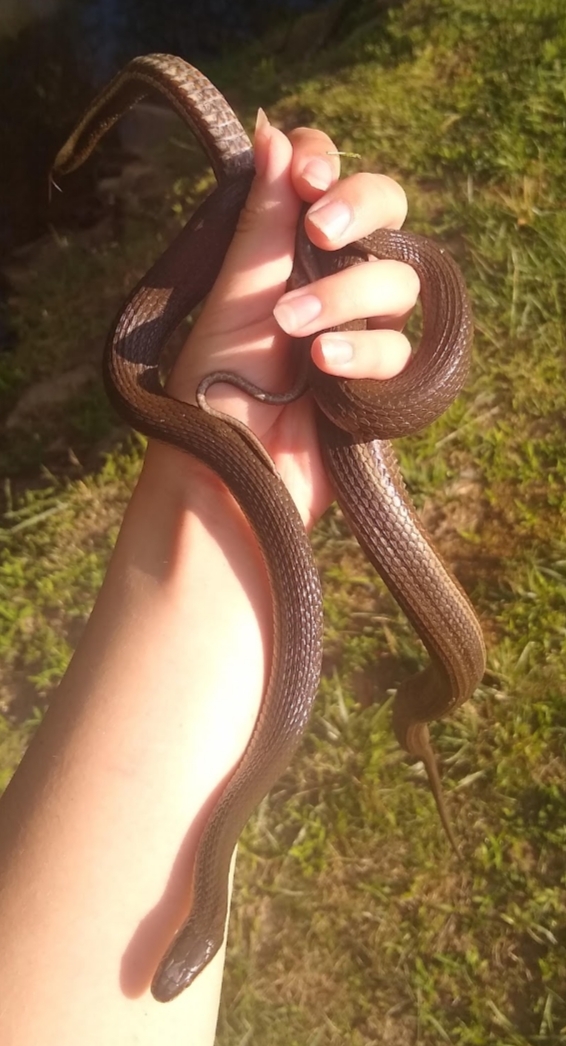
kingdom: Animalia
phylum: Chordata
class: Squamata
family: Colubridae
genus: Regina
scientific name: Regina septemvittata
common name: Queen snake
